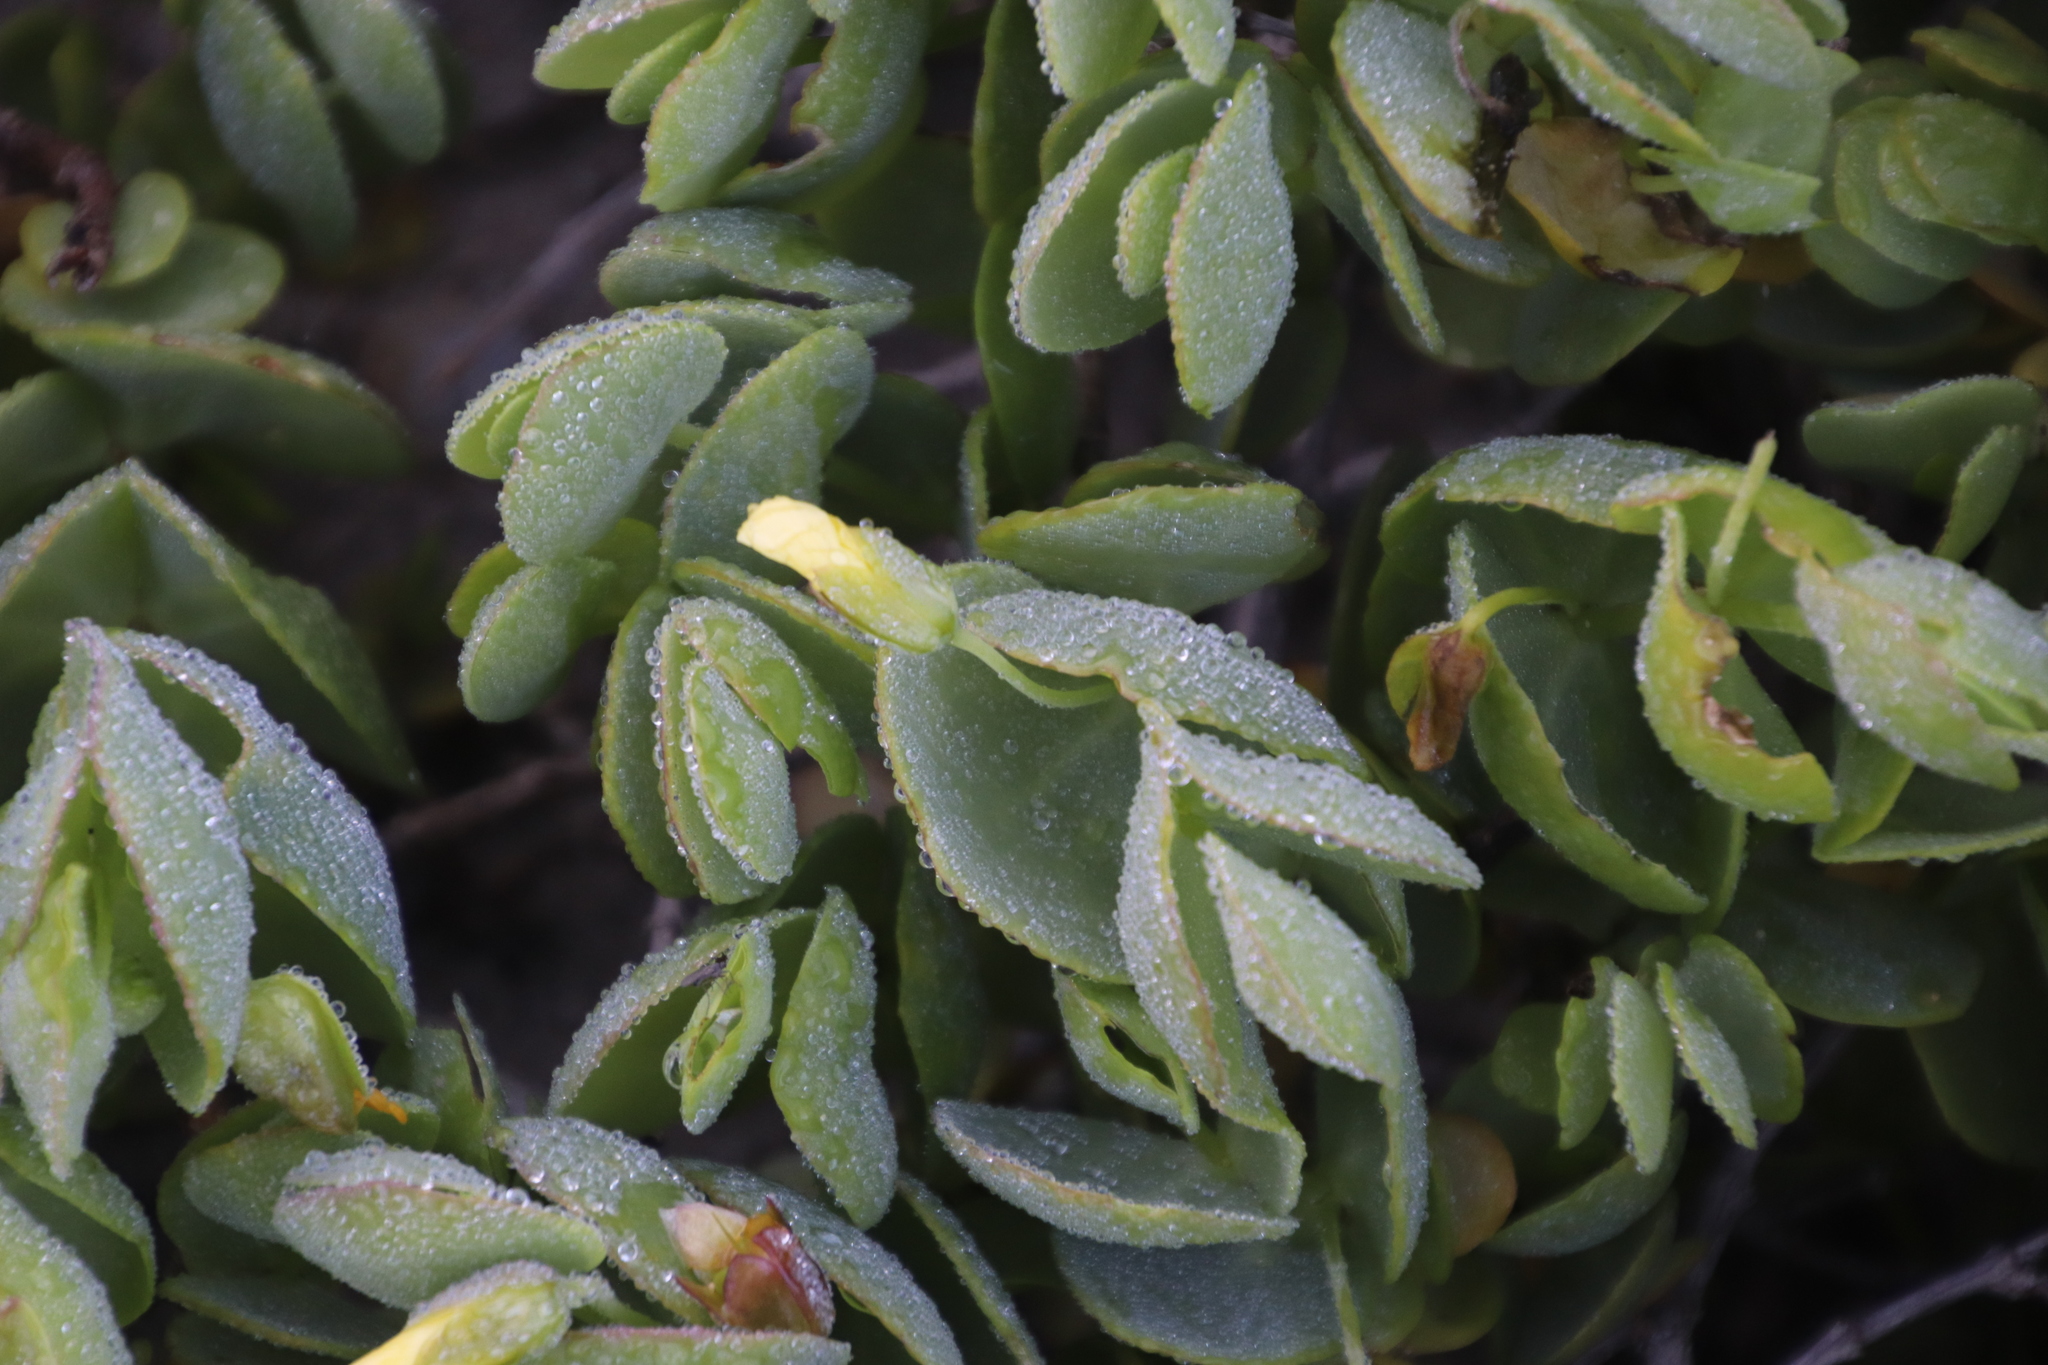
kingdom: Plantae
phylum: Tracheophyta
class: Magnoliopsida
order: Zygophyllales
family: Zygophyllaceae
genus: Roepera
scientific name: Roepera cordifolia
